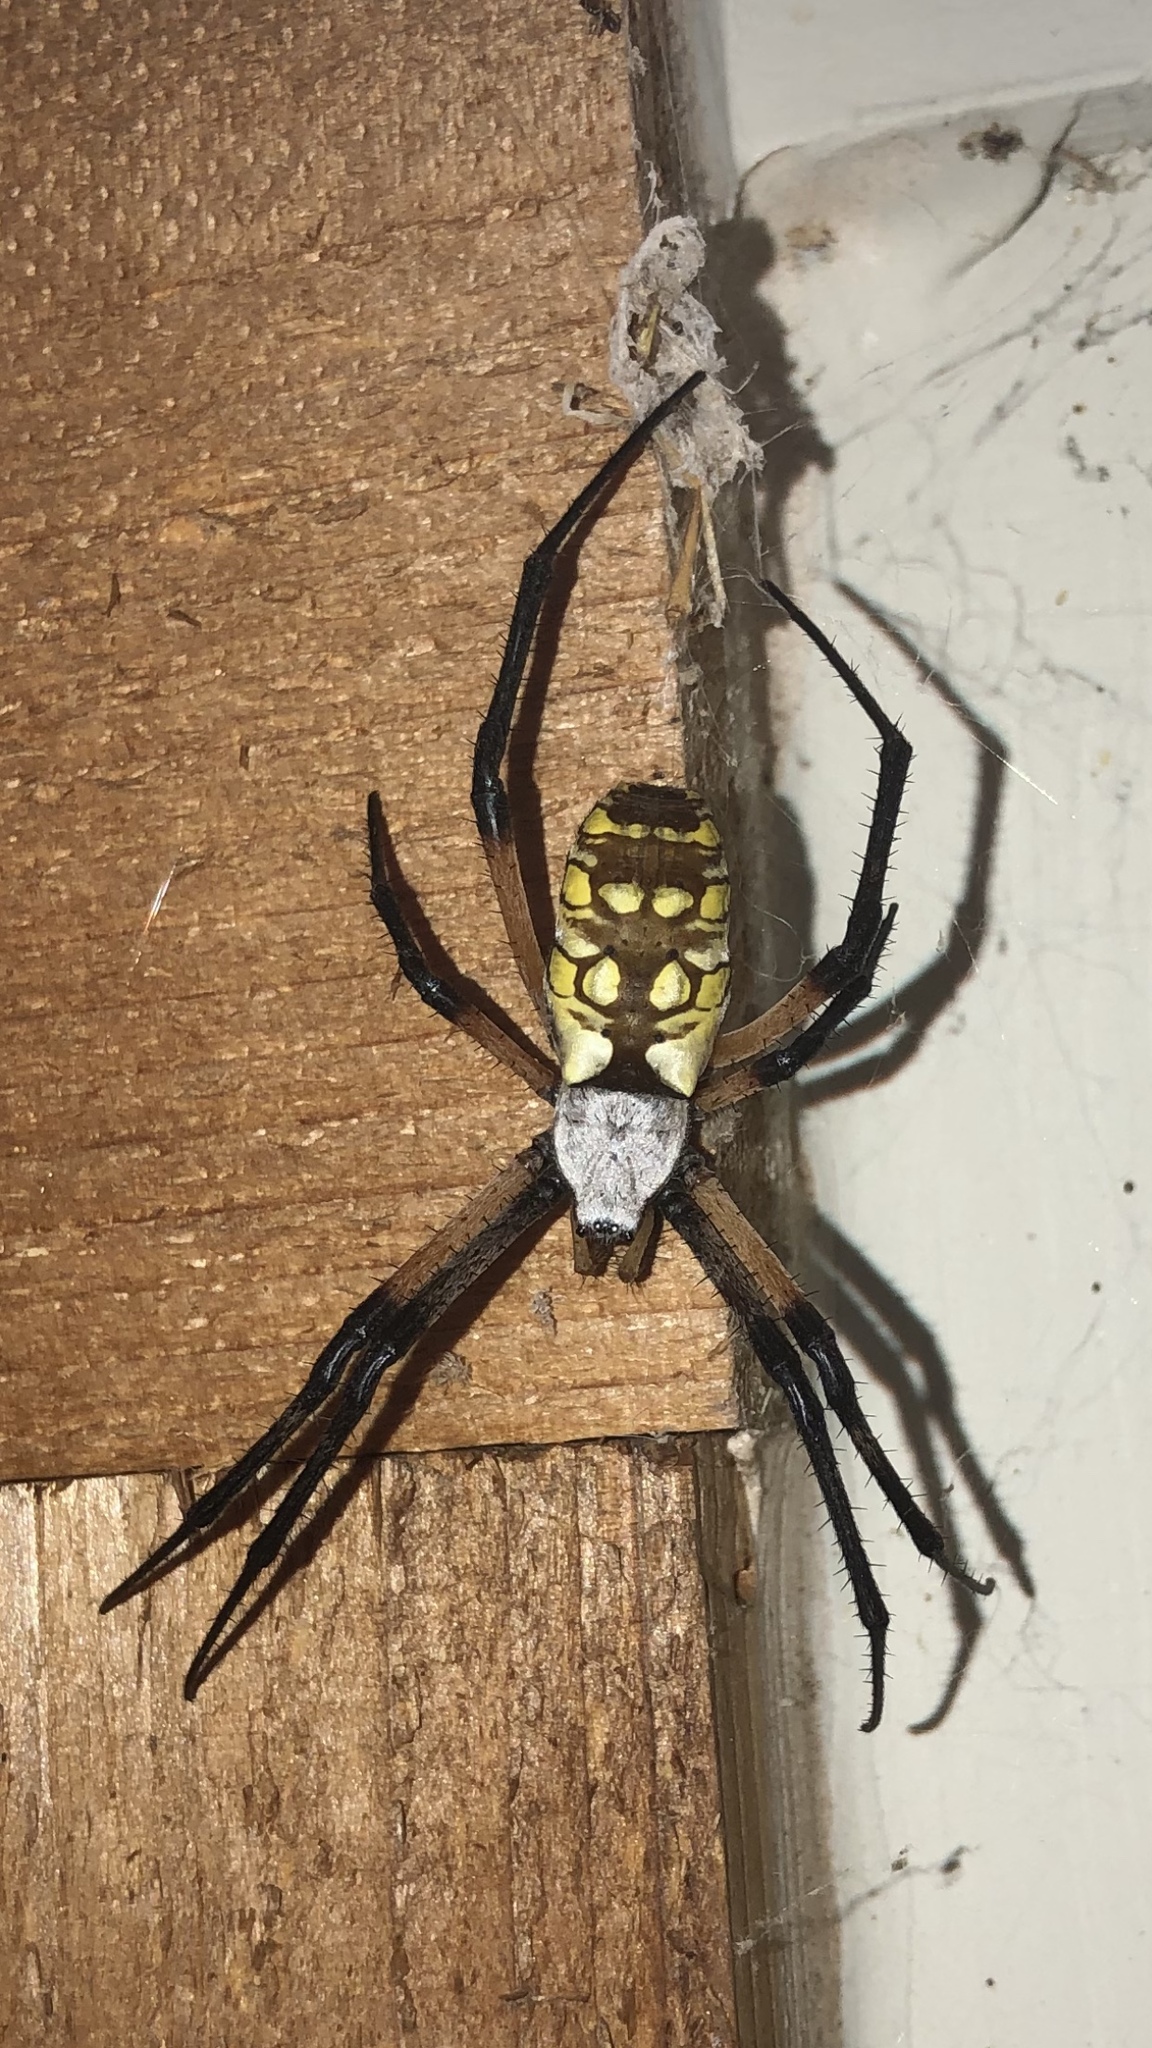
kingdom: Animalia
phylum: Arthropoda
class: Arachnida
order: Araneae
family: Araneidae
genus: Argiope
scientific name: Argiope aurantia
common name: Orb weavers
